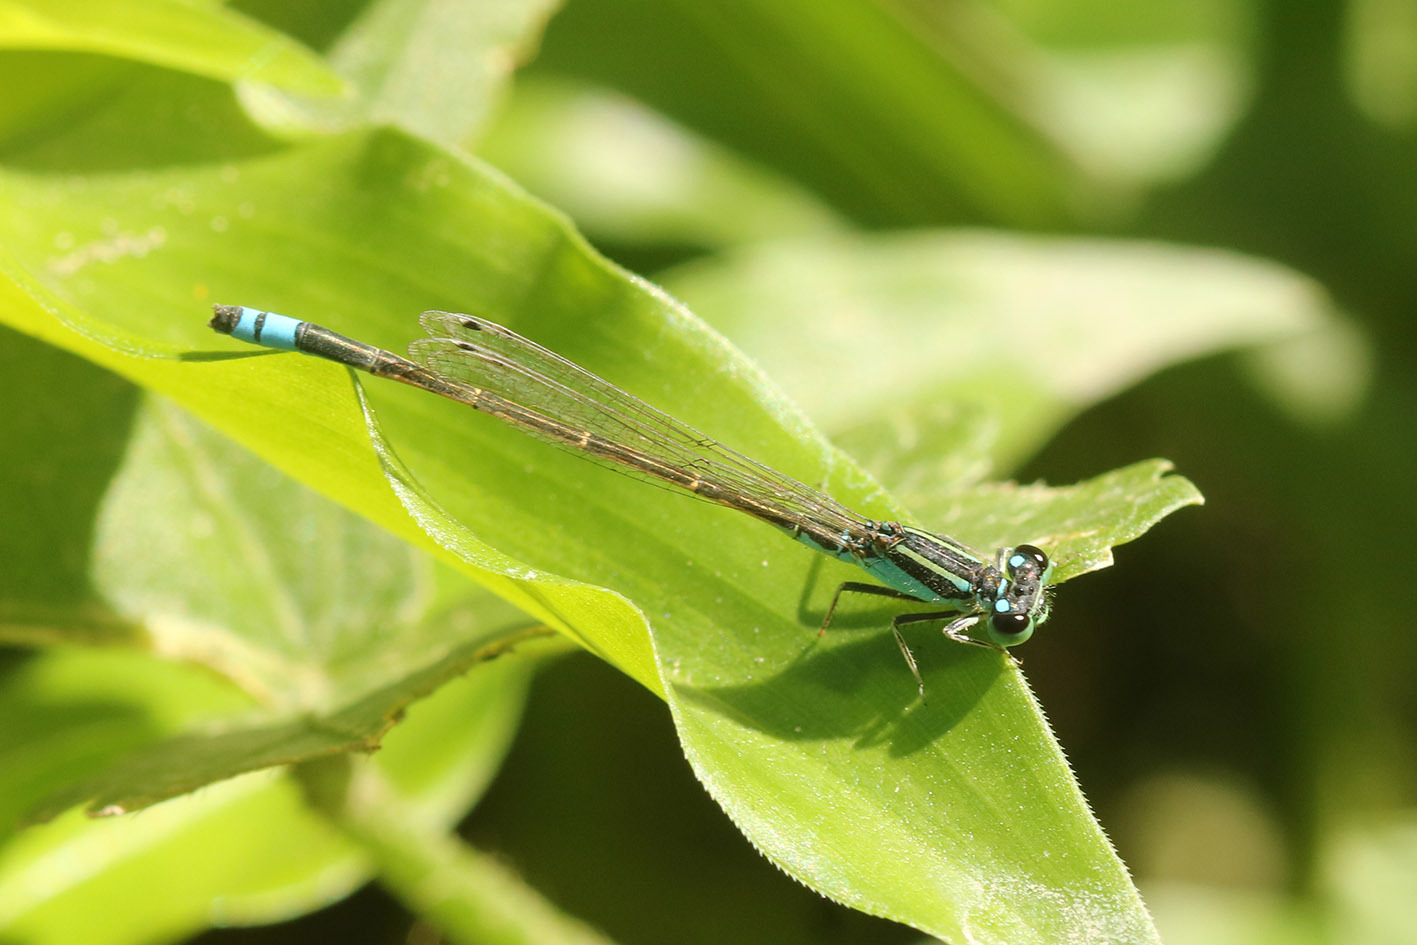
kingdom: Animalia
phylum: Arthropoda
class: Insecta
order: Odonata
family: Coenagrionidae
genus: Ischnura
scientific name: Ischnura fluviatilis
